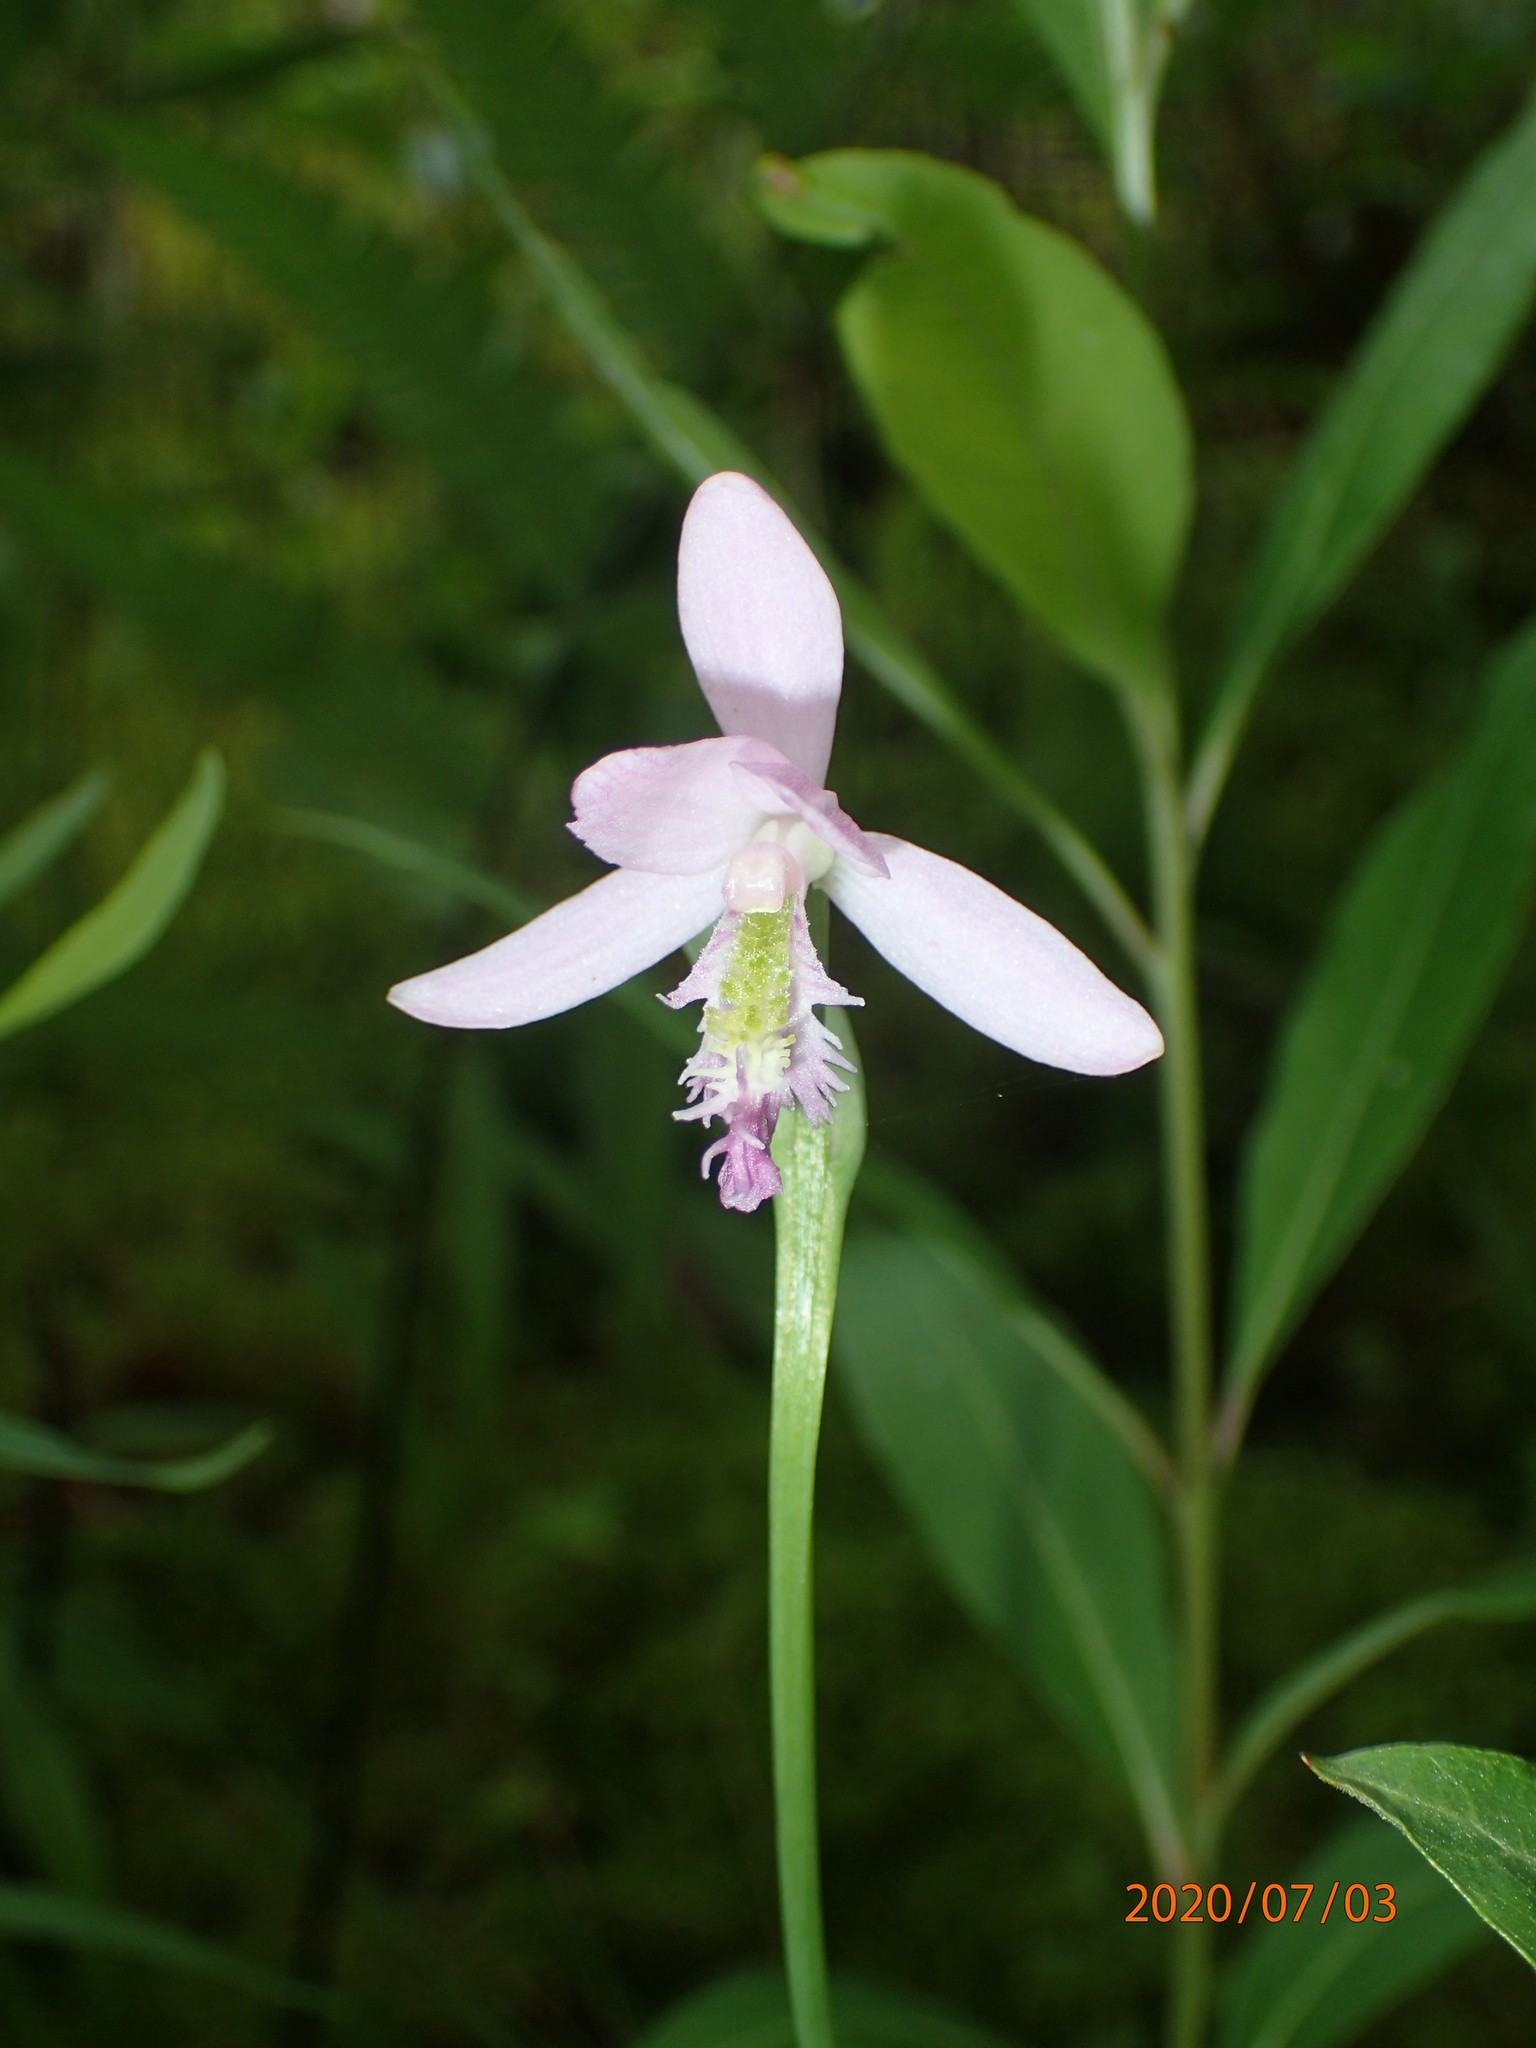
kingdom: Plantae
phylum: Tracheophyta
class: Liliopsida
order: Asparagales
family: Orchidaceae
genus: Pogonia
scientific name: Pogonia ophioglossoides
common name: Rose pogonia
